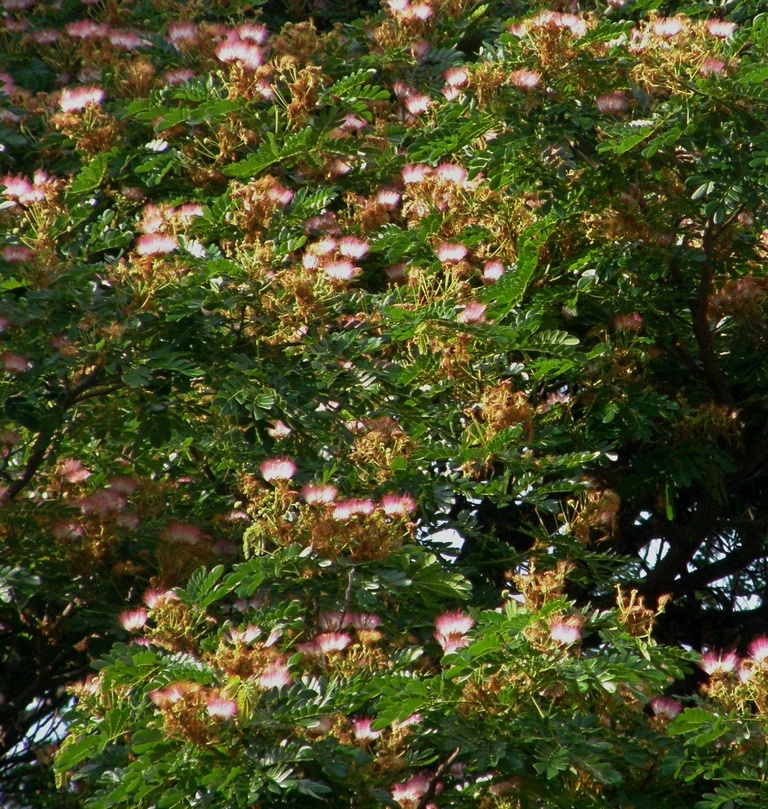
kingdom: Plantae
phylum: Tracheophyta
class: Magnoliopsida
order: Fabales
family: Fabaceae
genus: Samanea
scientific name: Samanea saman
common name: Raintree
